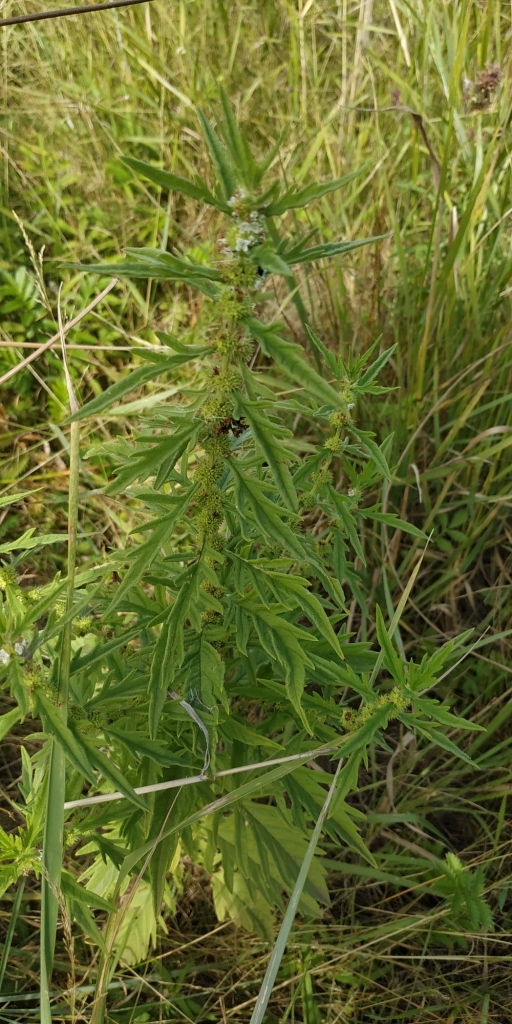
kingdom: Plantae
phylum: Tracheophyta
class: Magnoliopsida
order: Lamiales
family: Lamiaceae
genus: Lycopus
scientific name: Lycopus exaltatus
